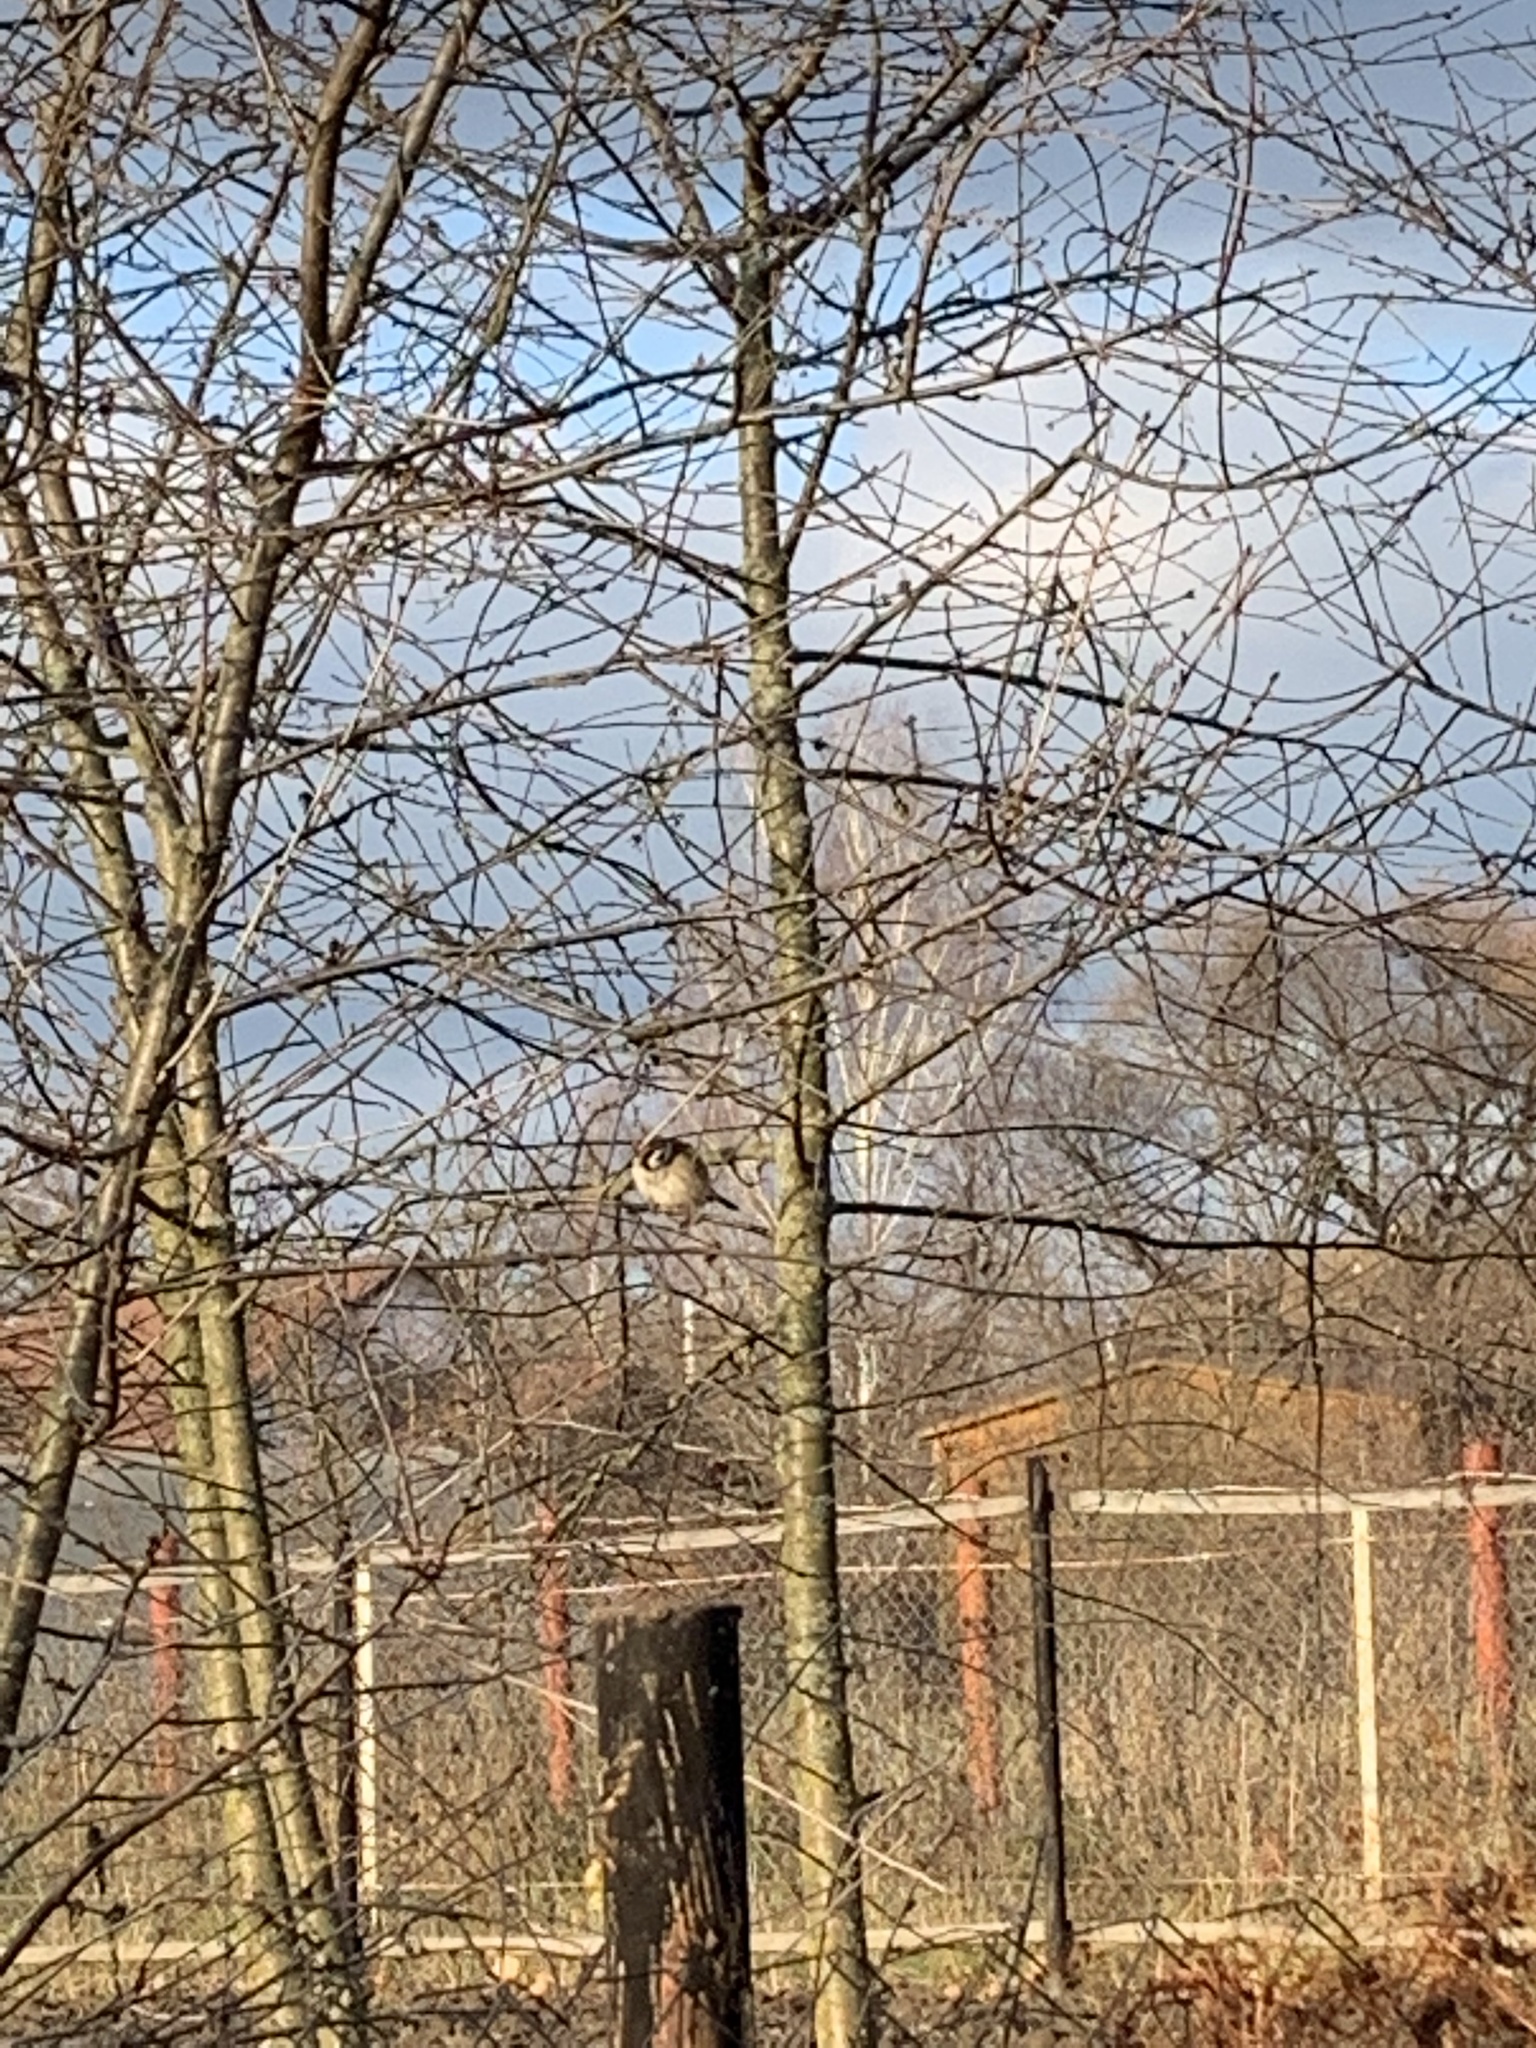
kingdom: Animalia
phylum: Chordata
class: Aves
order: Passeriformes
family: Passeridae
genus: Passer
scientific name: Passer montanus
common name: Eurasian tree sparrow
